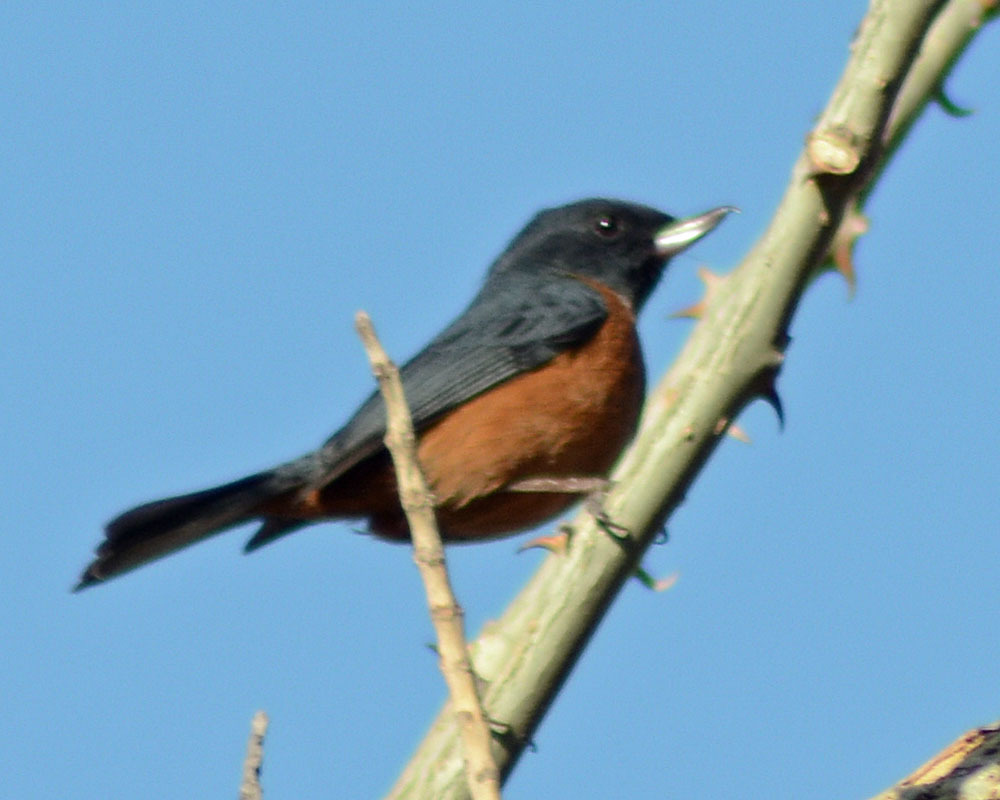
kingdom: Animalia
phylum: Chordata
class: Aves
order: Passeriformes
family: Thraupidae
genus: Diglossa
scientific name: Diglossa baritula
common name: Cinnamon-bellied flowerpiercer
